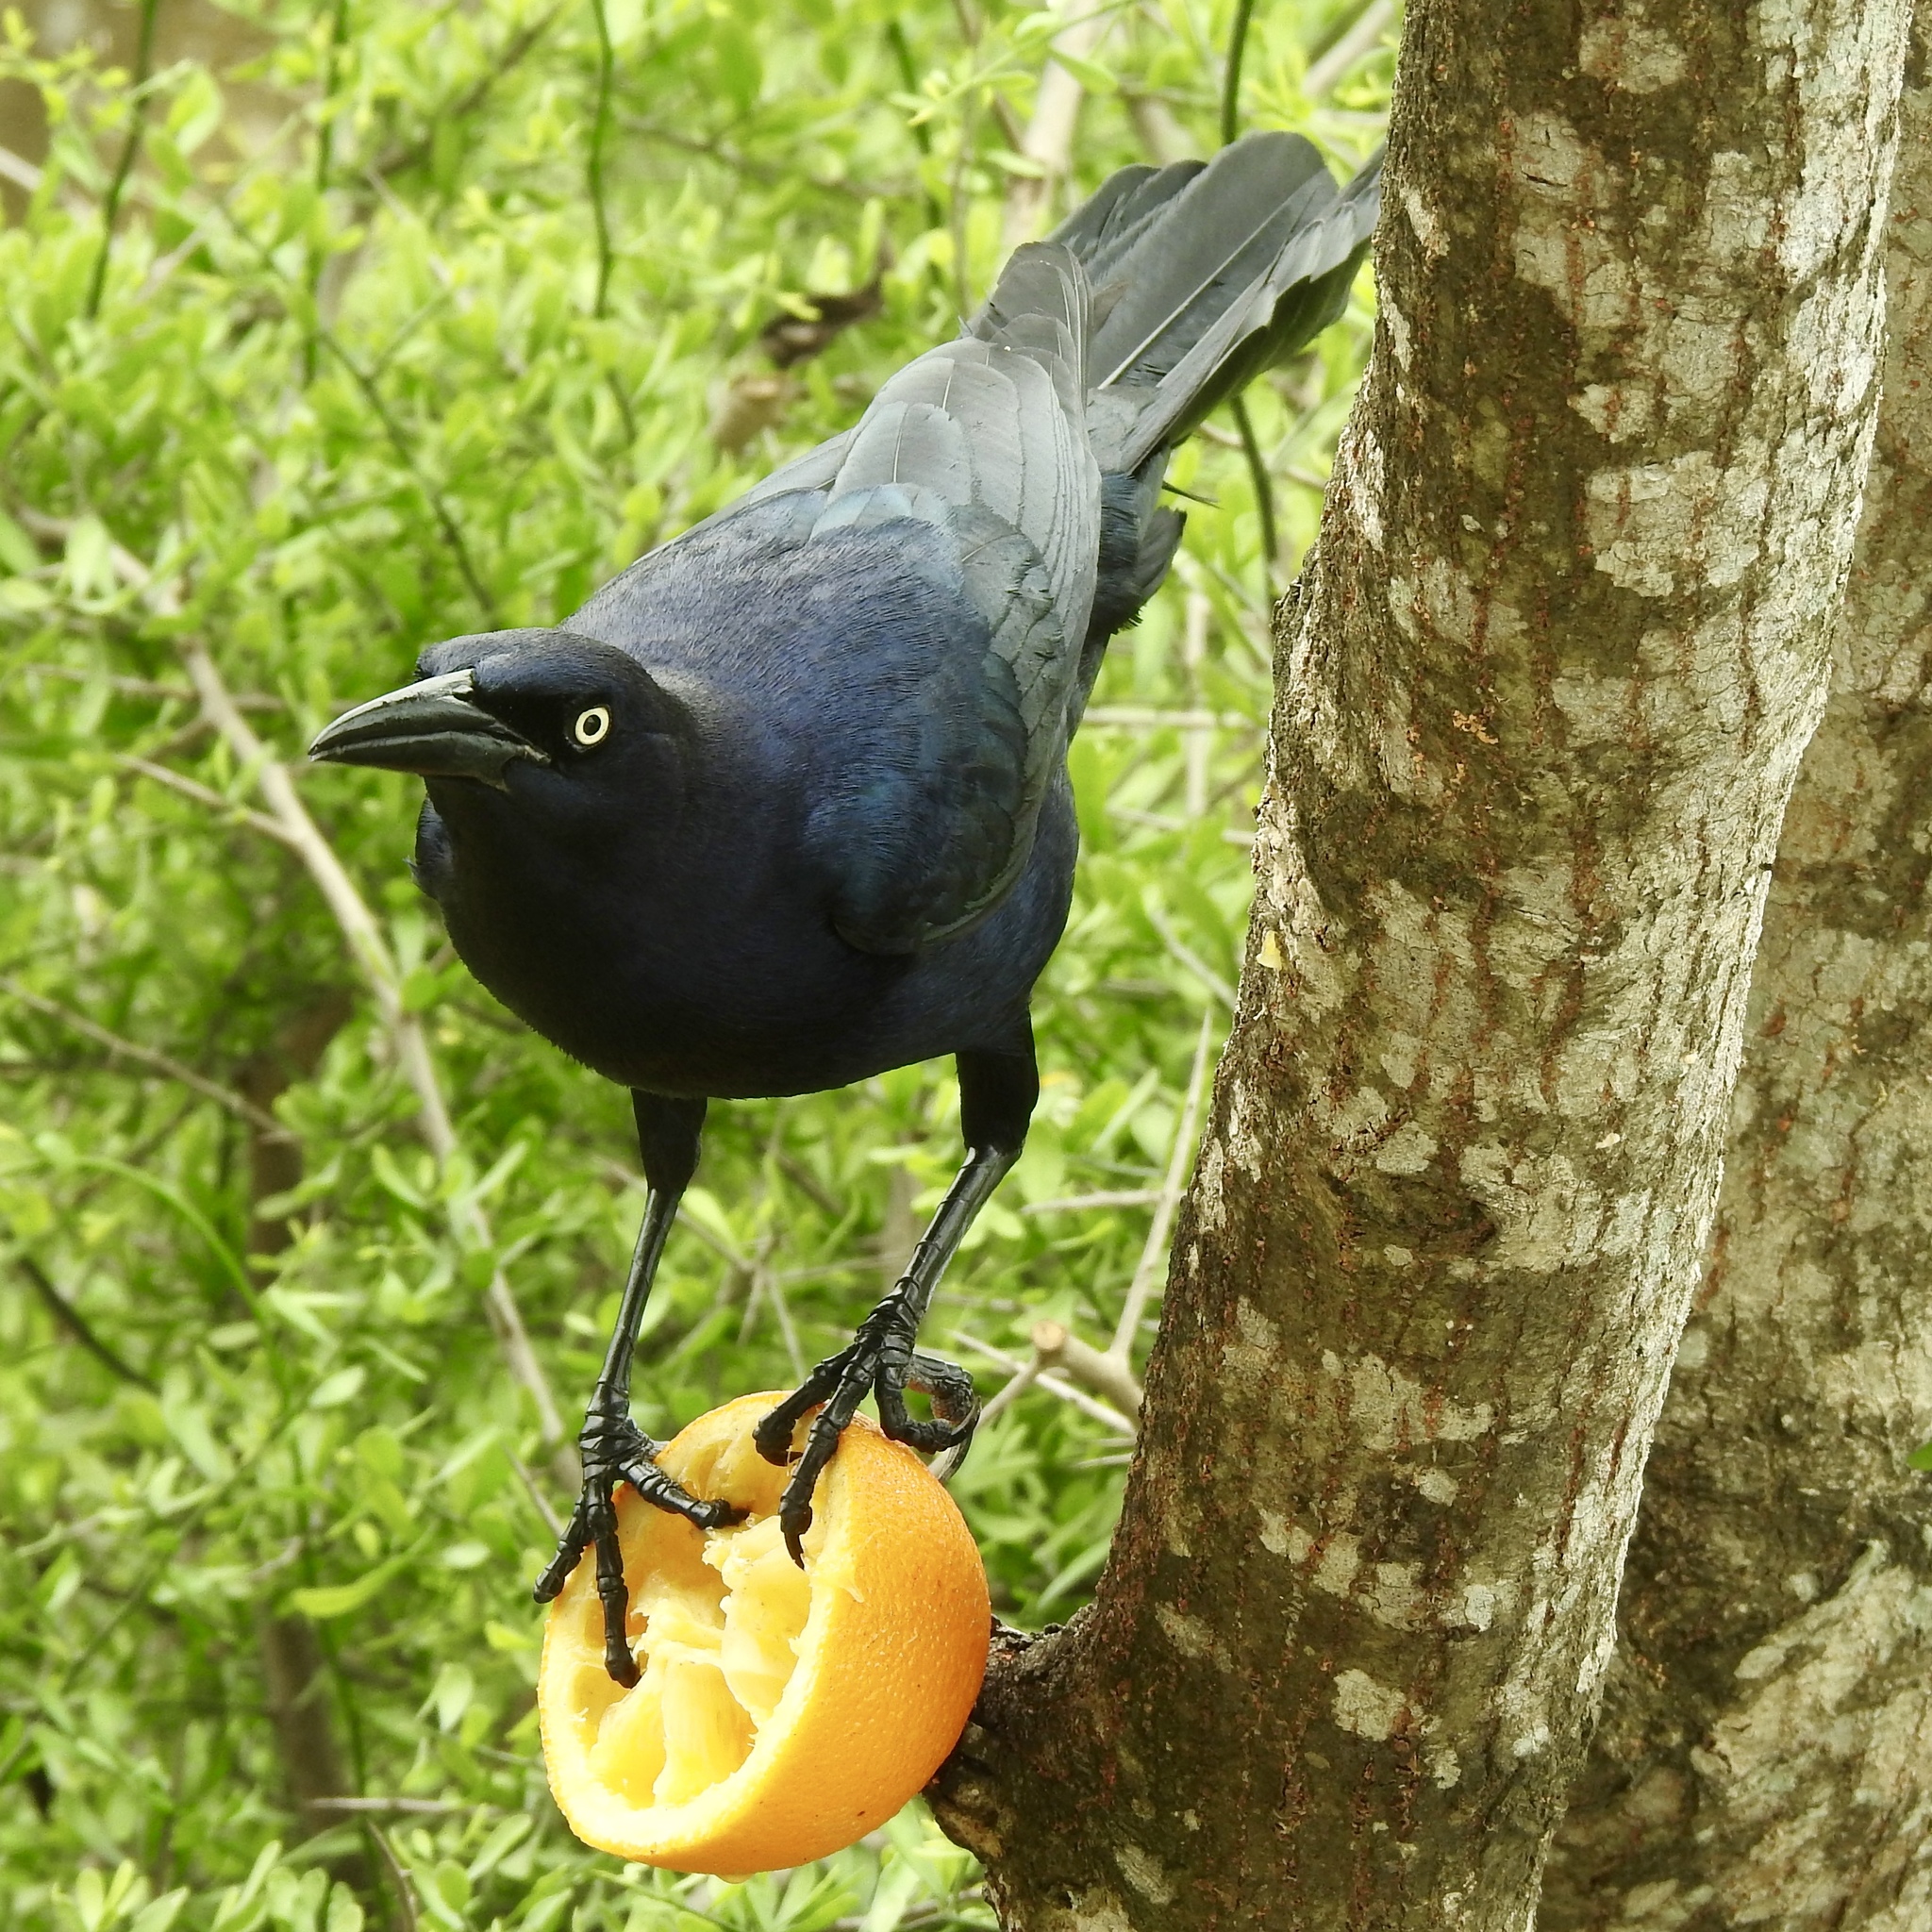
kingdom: Animalia
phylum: Chordata
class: Aves
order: Passeriformes
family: Icteridae
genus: Quiscalus
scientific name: Quiscalus mexicanus
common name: Great-tailed grackle
